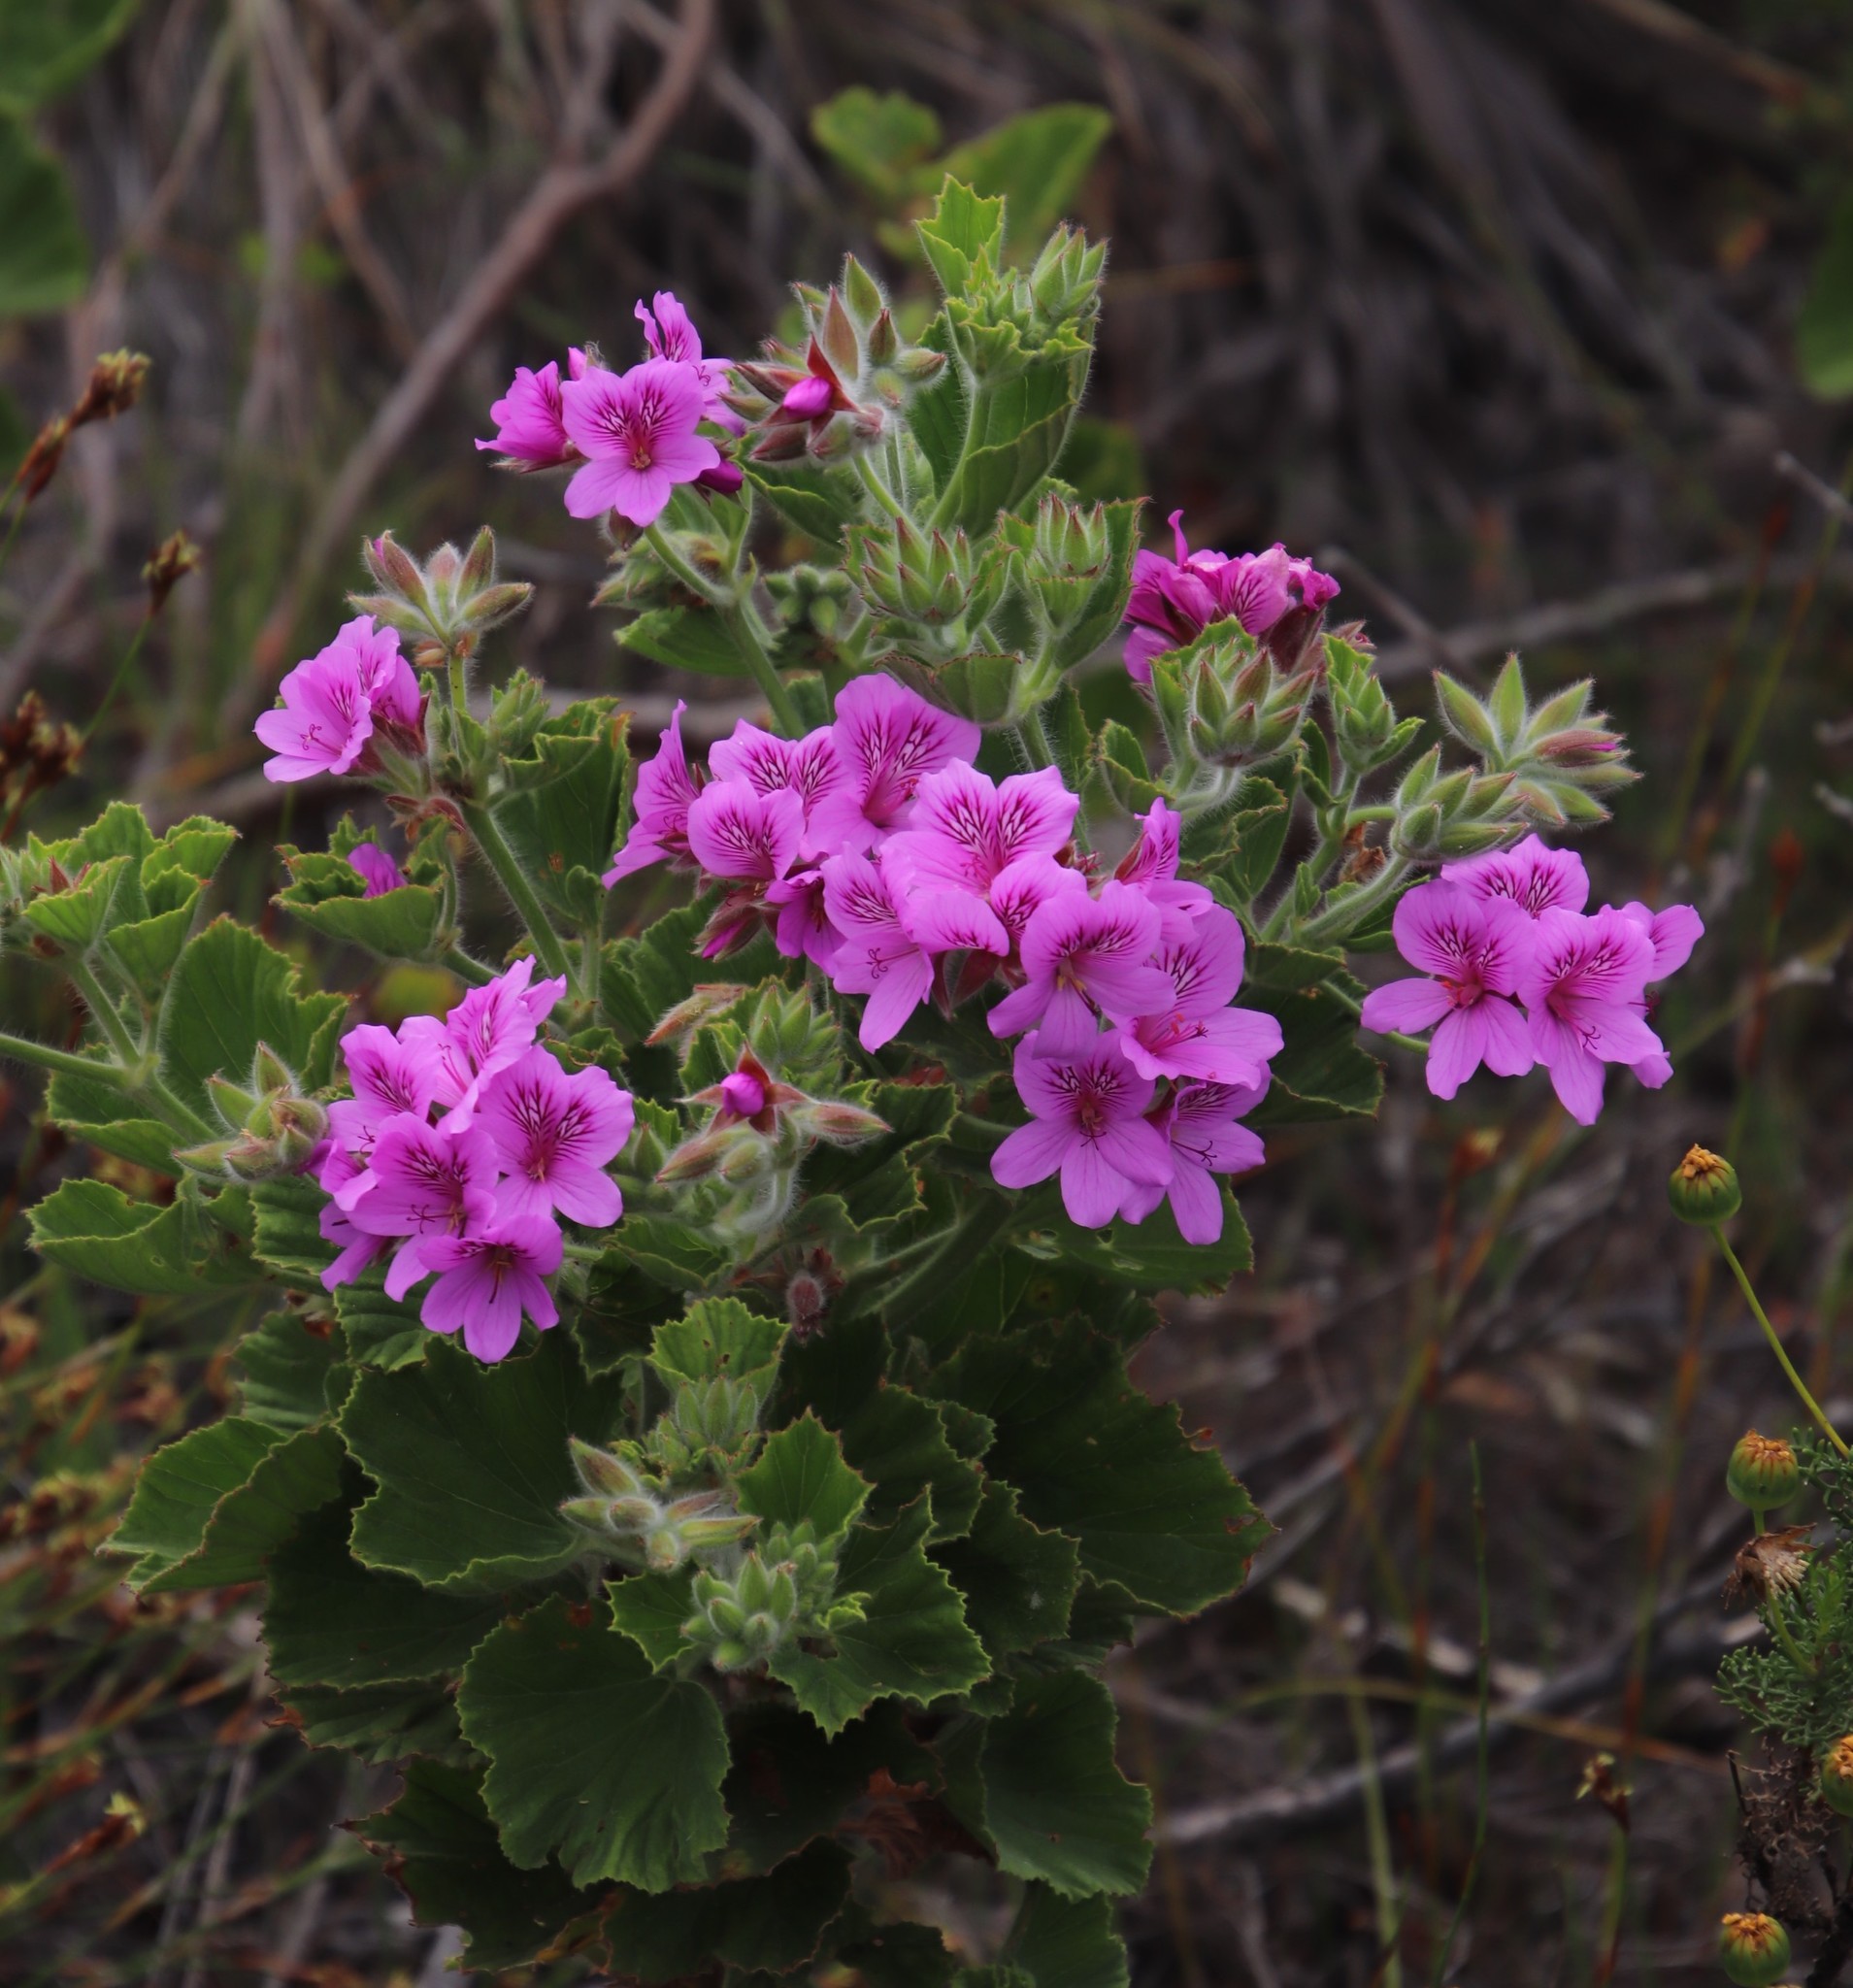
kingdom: Plantae
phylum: Tracheophyta
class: Magnoliopsida
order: Geraniales
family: Geraniaceae
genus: Pelargonium
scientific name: Pelargonium cucullatum
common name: Tree pelargonium
